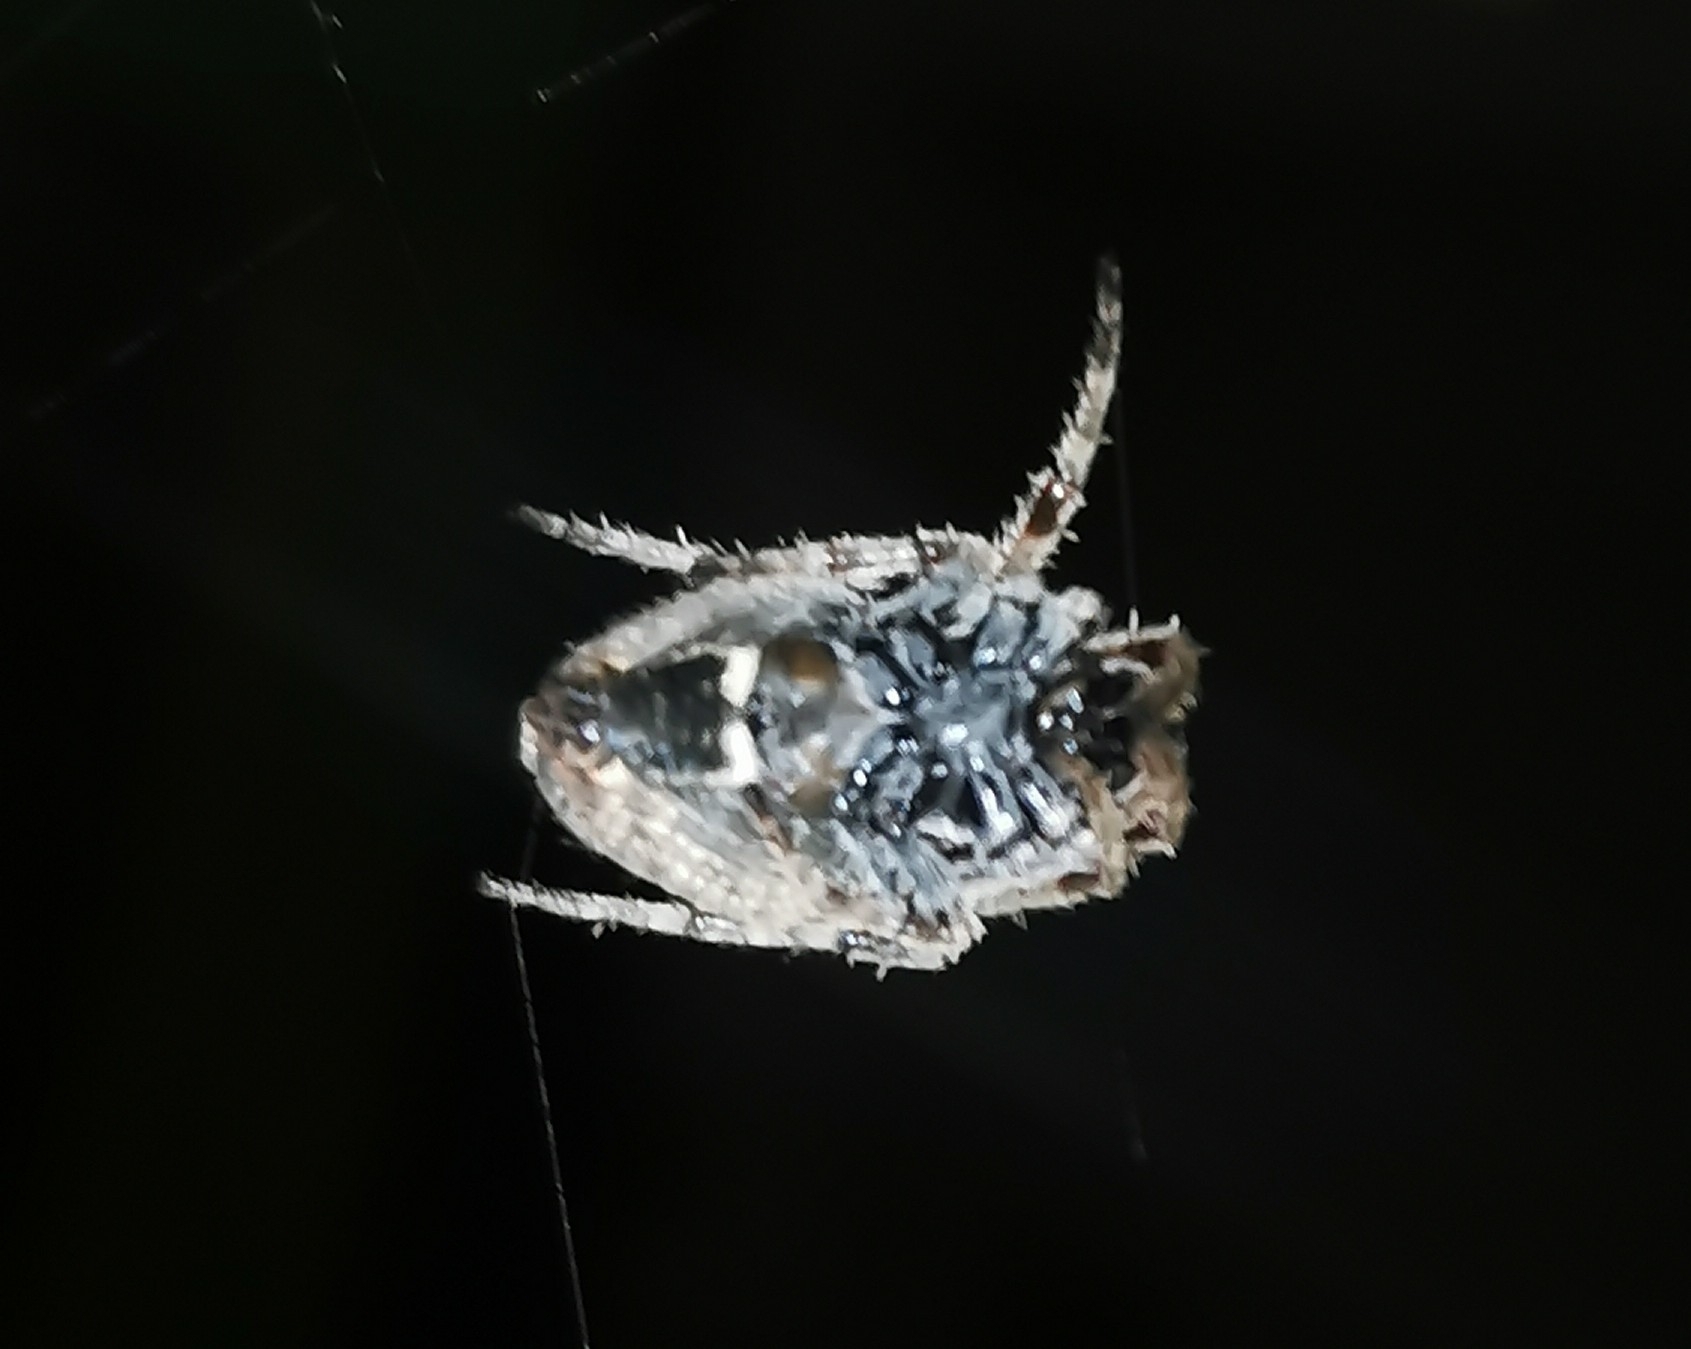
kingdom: Animalia
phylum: Arthropoda
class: Arachnida
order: Araneae
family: Araneidae
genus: Eriophora
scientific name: Eriophora pustulosa
